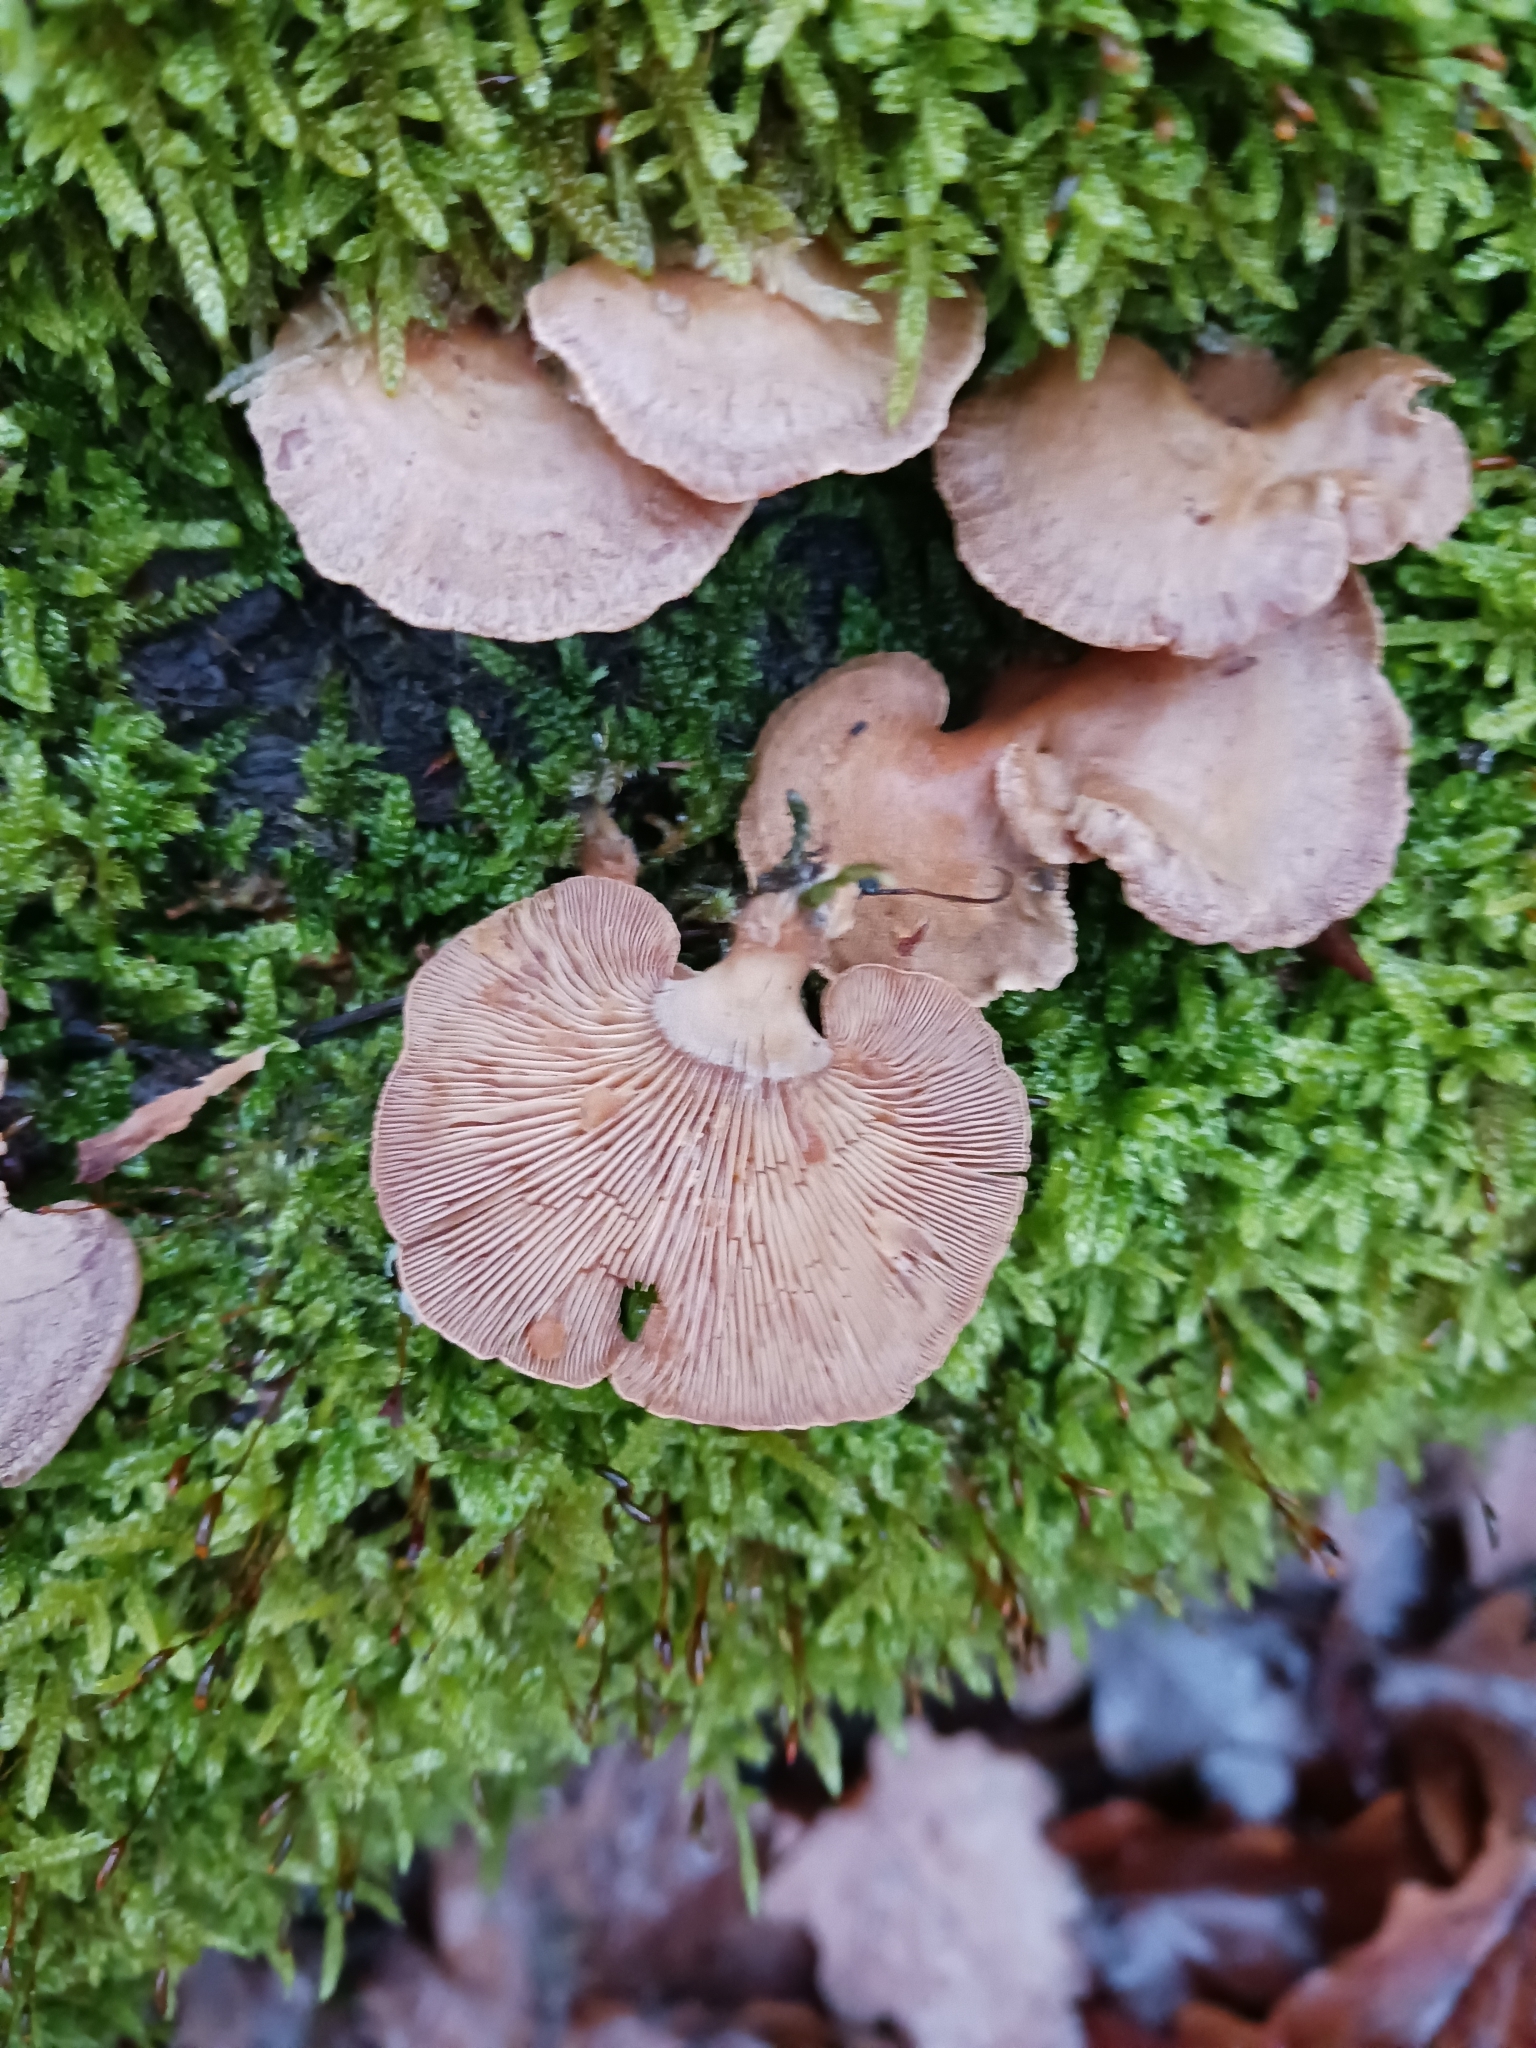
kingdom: Fungi
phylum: Basidiomycota
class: Agaricomycetes
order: Agaricales
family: Mycenaceae
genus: Panellus
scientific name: Panellus stipticus
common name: Bitter oysterling
